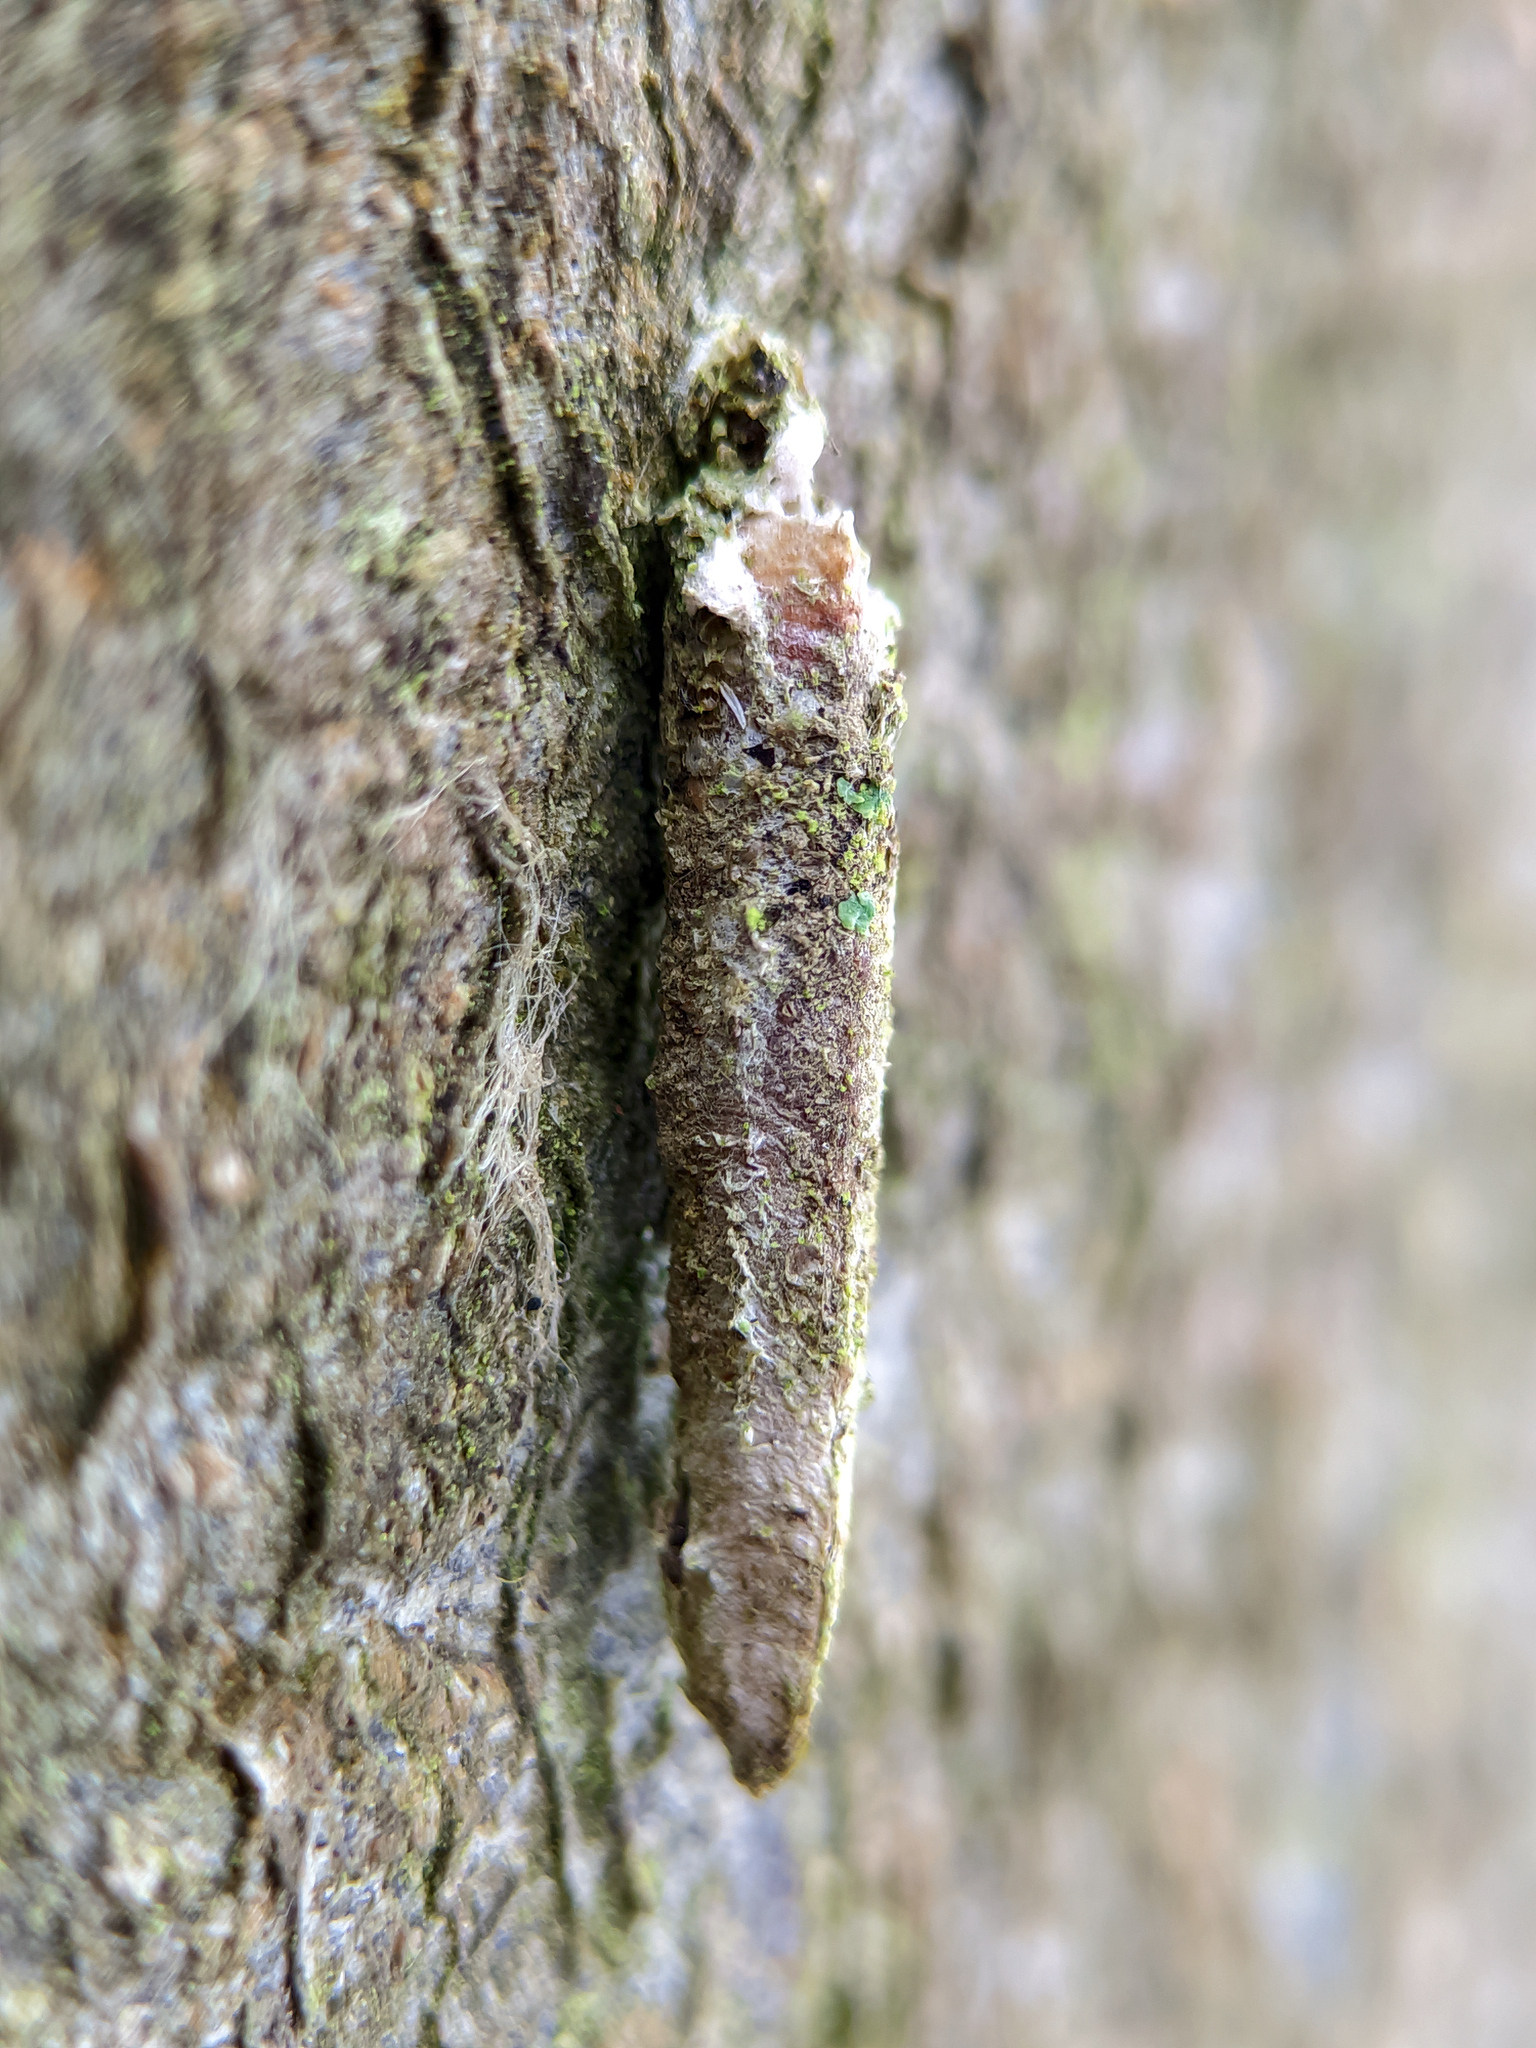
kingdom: Animalia
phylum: Arthropoda
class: Insecta
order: Lepidoptera
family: Psychidae
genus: Taleporia
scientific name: Taleporia tubulosa
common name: Brown smoke
